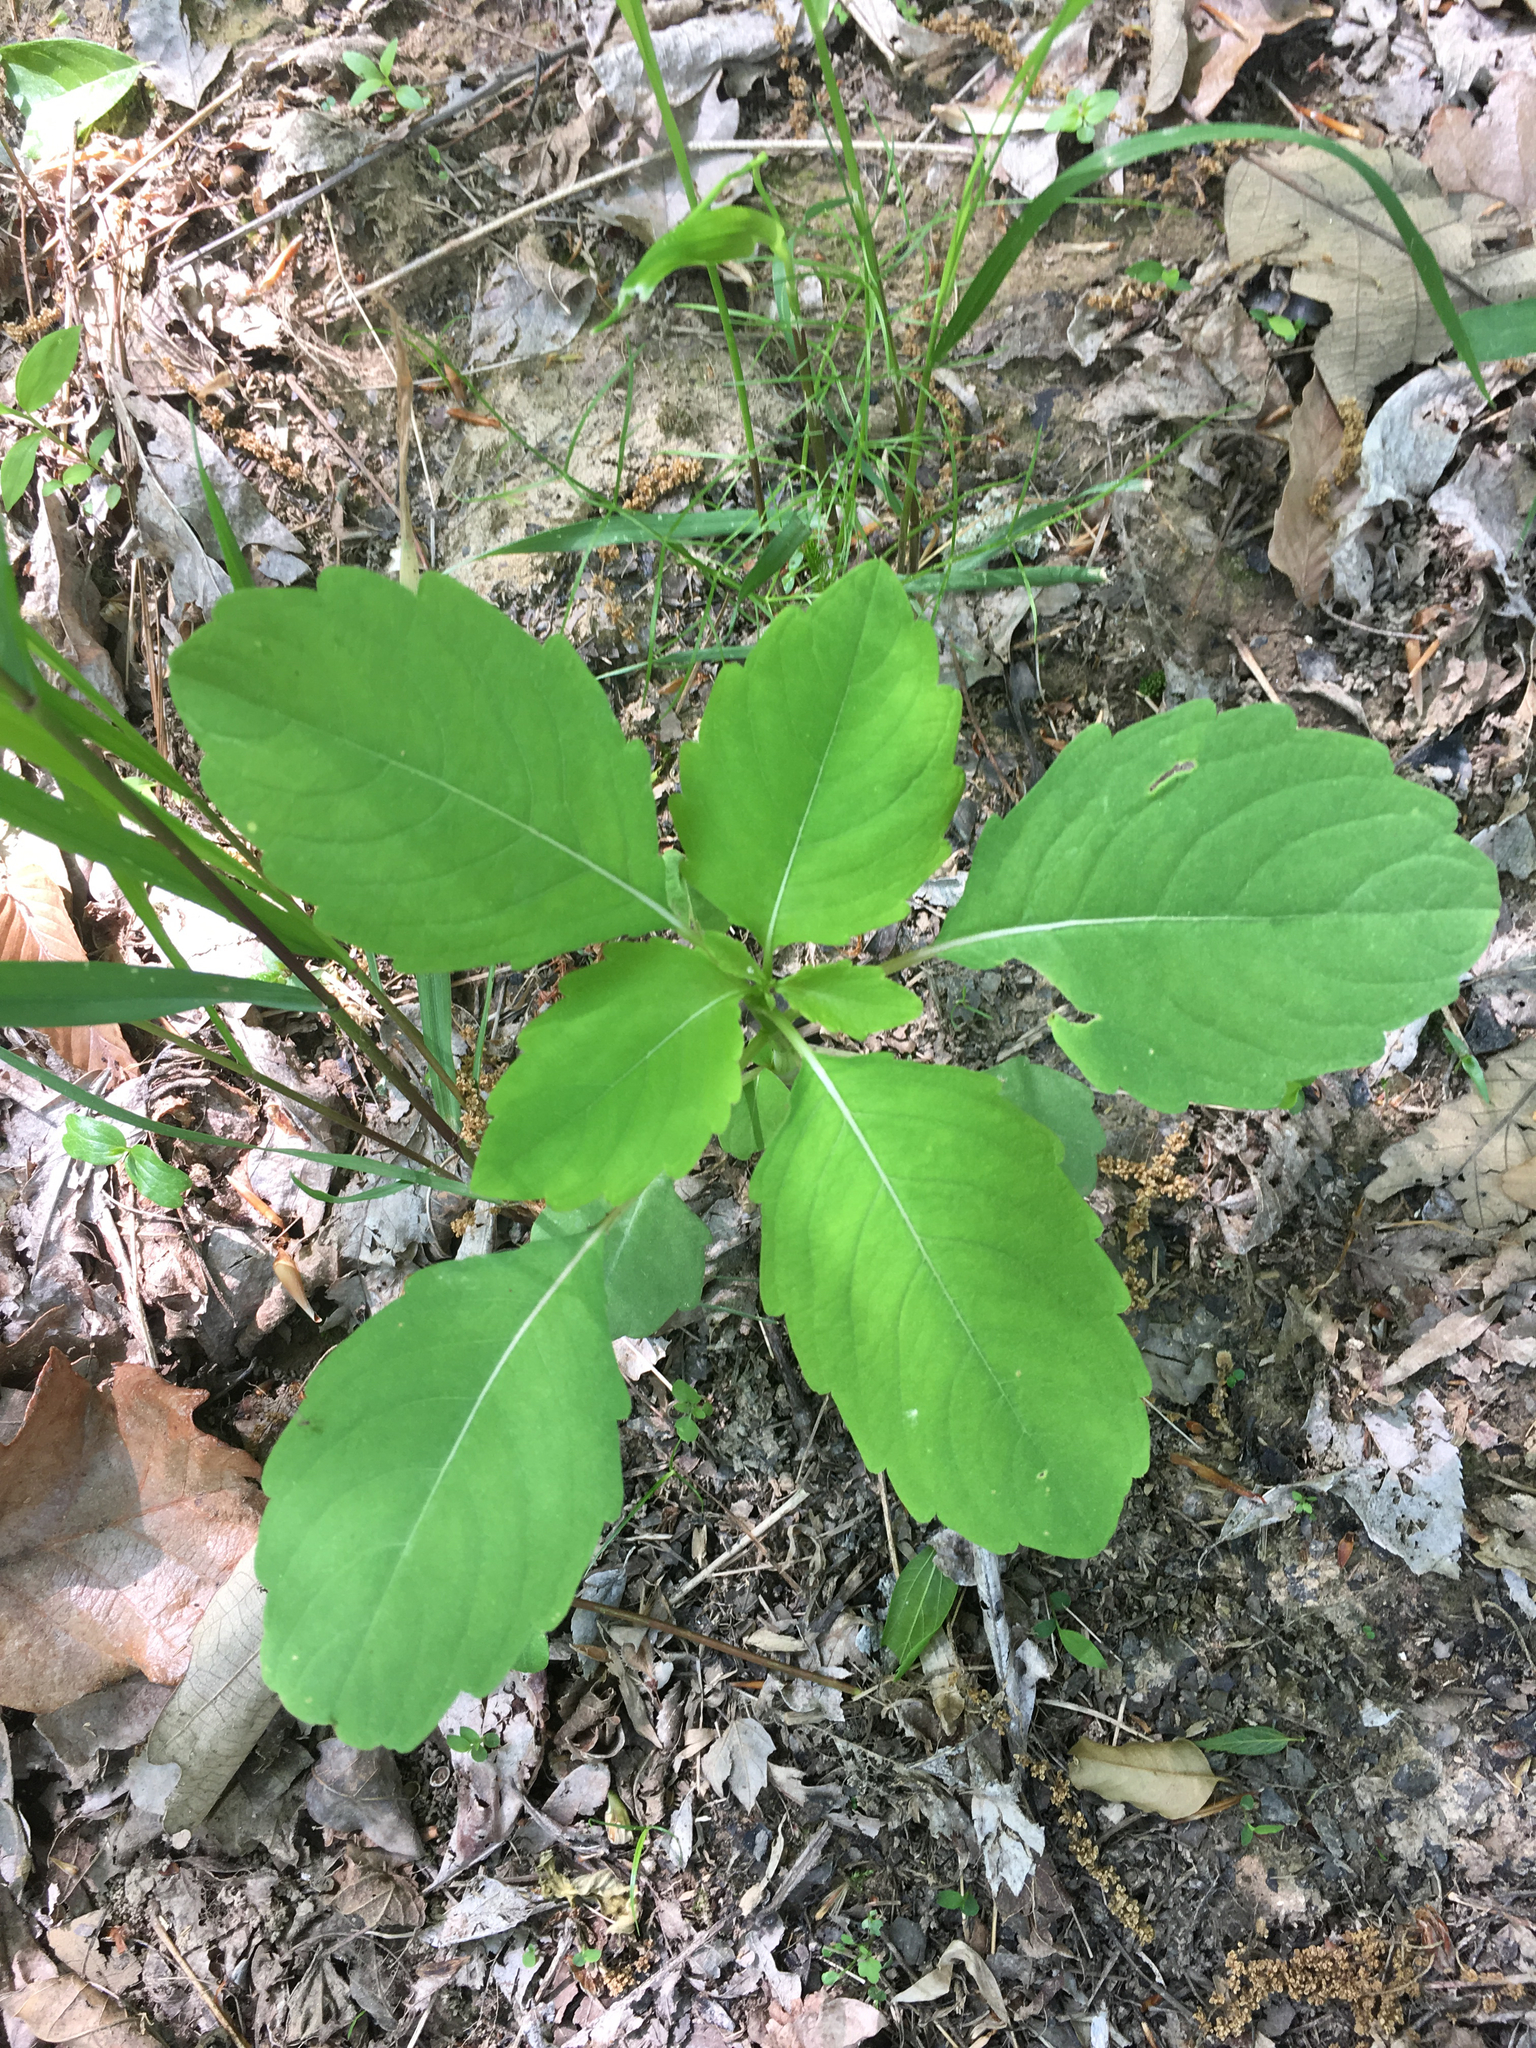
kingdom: Plantae
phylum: Tracheophyta
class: Magnoliopsida
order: Ericales
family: Balsaminaceae
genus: Impatiens
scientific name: Impatiens capensis
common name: Orange balsam
